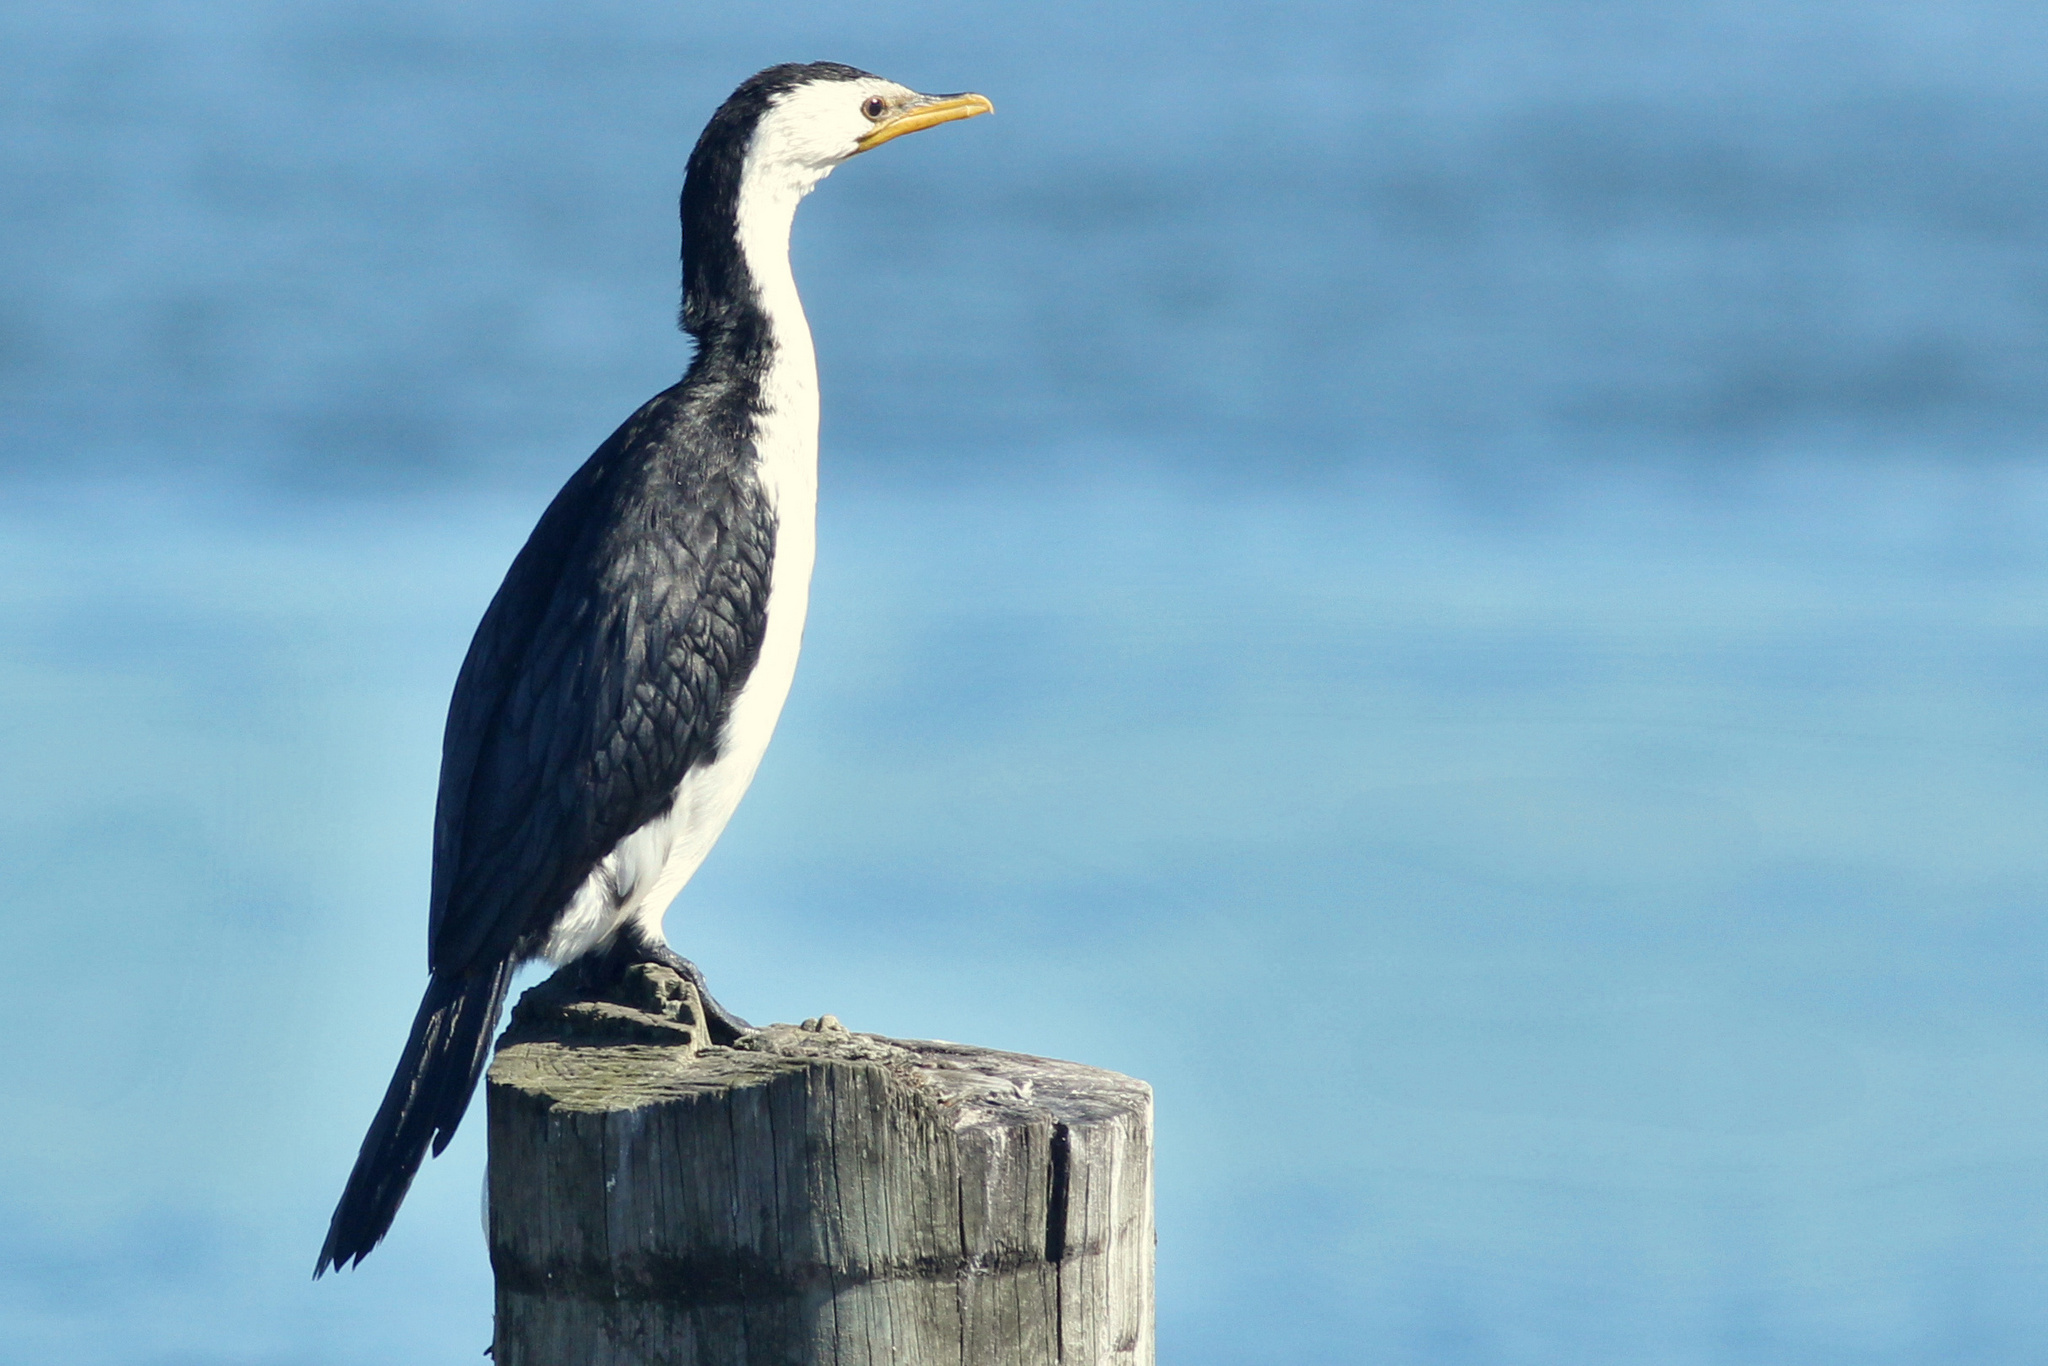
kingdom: Animalia
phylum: Chordata
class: Aves
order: Suliformes
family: Phalacrocoracidae
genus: Microcarbo
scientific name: Microcarbo melanoleucos
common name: Little pied cormorant
